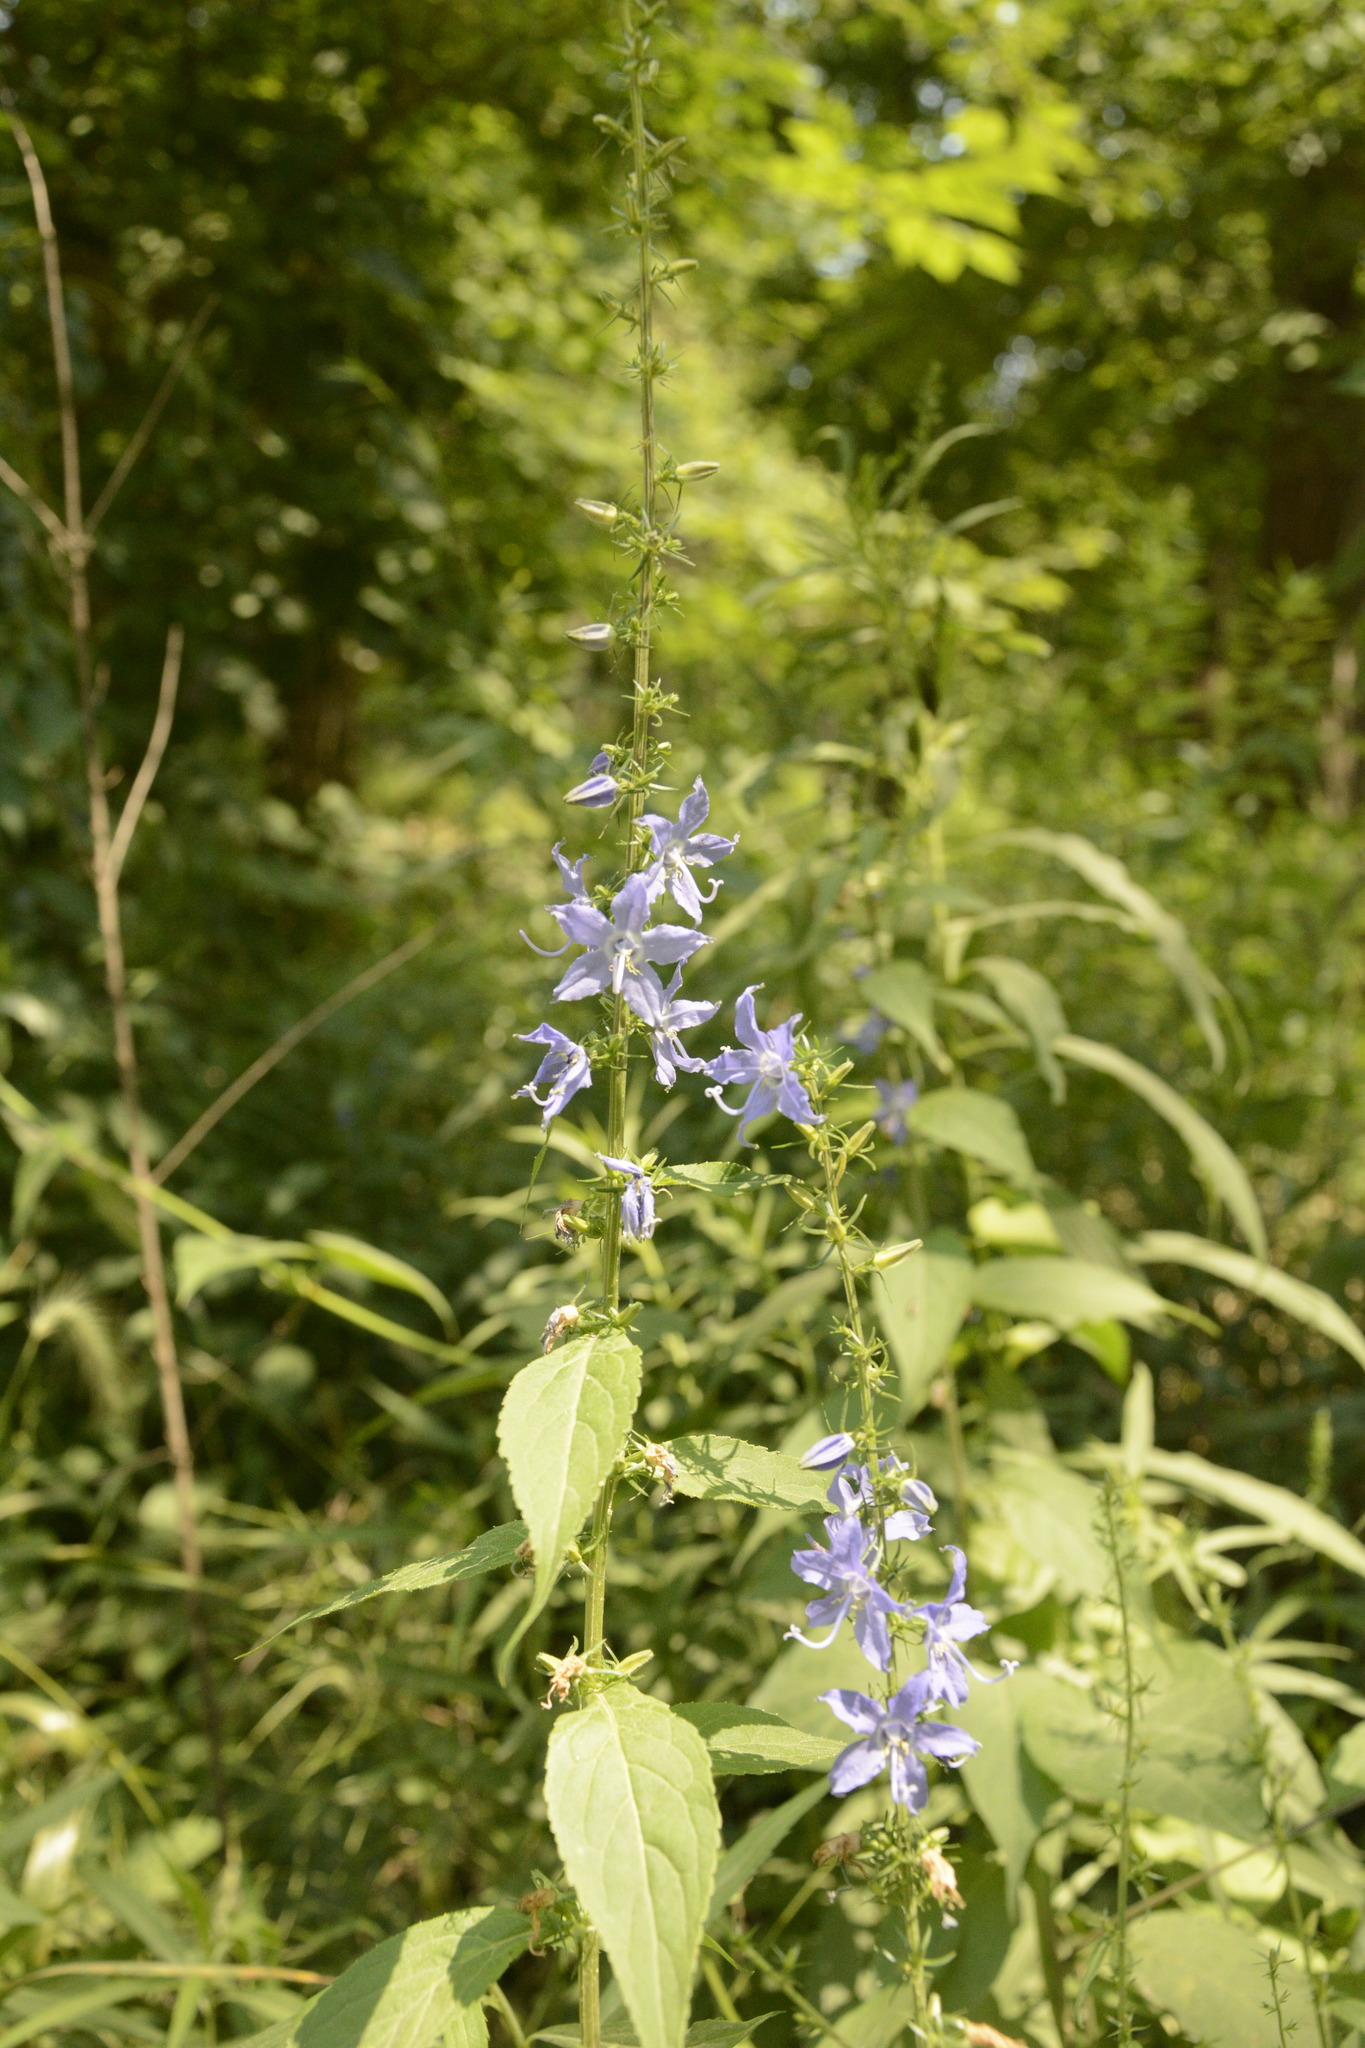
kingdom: Plantae
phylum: Tracheophyta
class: Magnoliopsida
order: Asterales
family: Campanulaceae
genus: Campanulastrum
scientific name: Campanulastrum americanum
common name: American bellflower
